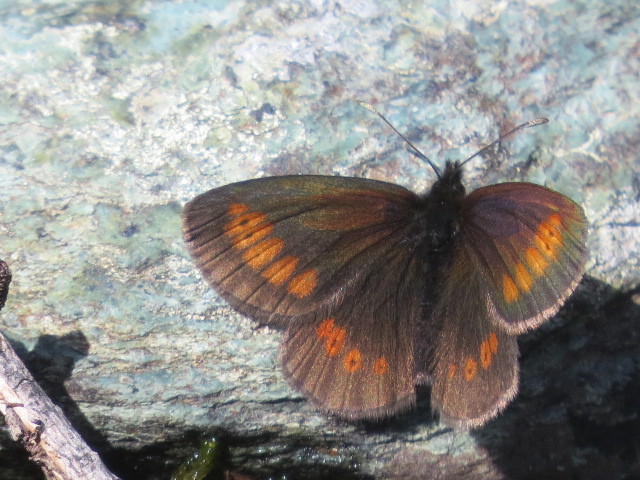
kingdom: Animalia
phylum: Arthropoda
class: Insecta
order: Lepidoptera
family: Nymphalidae
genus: Erebia
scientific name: Erebia melampus
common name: Lesser mountain ringlet
